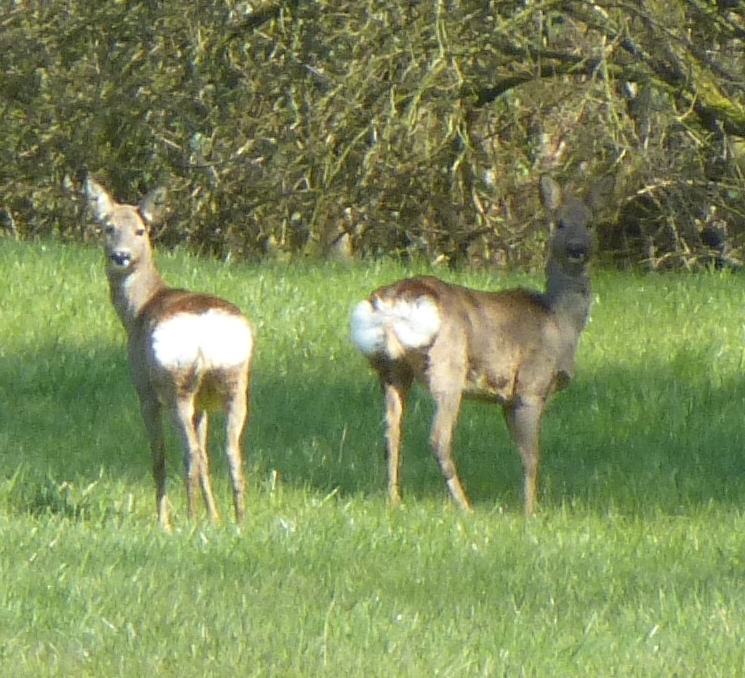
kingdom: Animalia
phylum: Chordata
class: Mammalia
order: Artiodactyla
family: Cervidae
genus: Capreolus
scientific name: Capreolus capreolus
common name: Western roe deer
